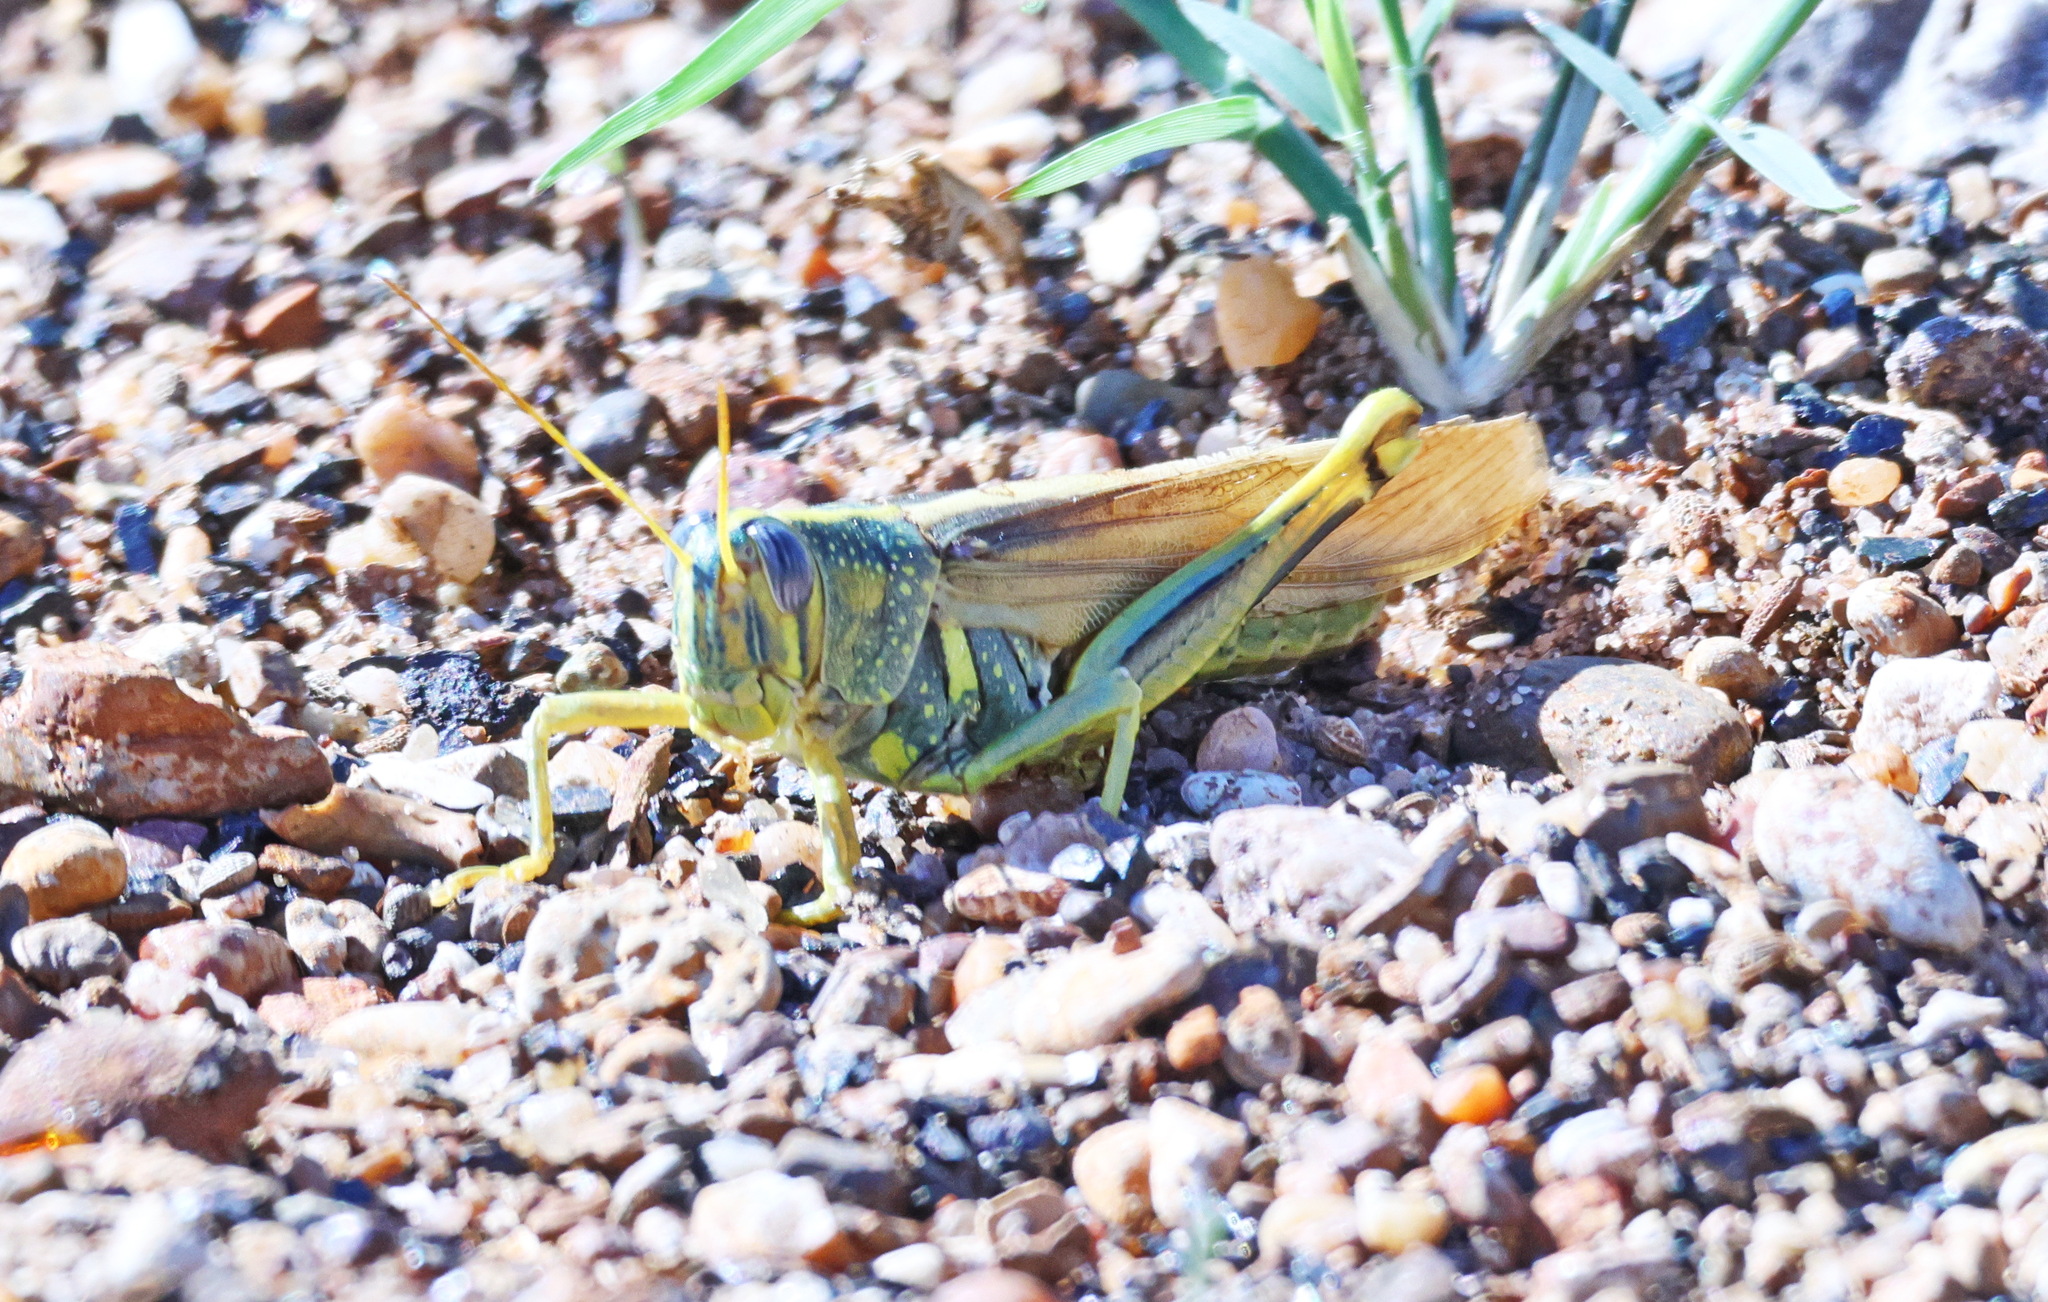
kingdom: Animalia
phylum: Arthropoda
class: Insecta
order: Orthoptera
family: Acrididae
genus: Schistocerca
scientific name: Schistocerca lineata
